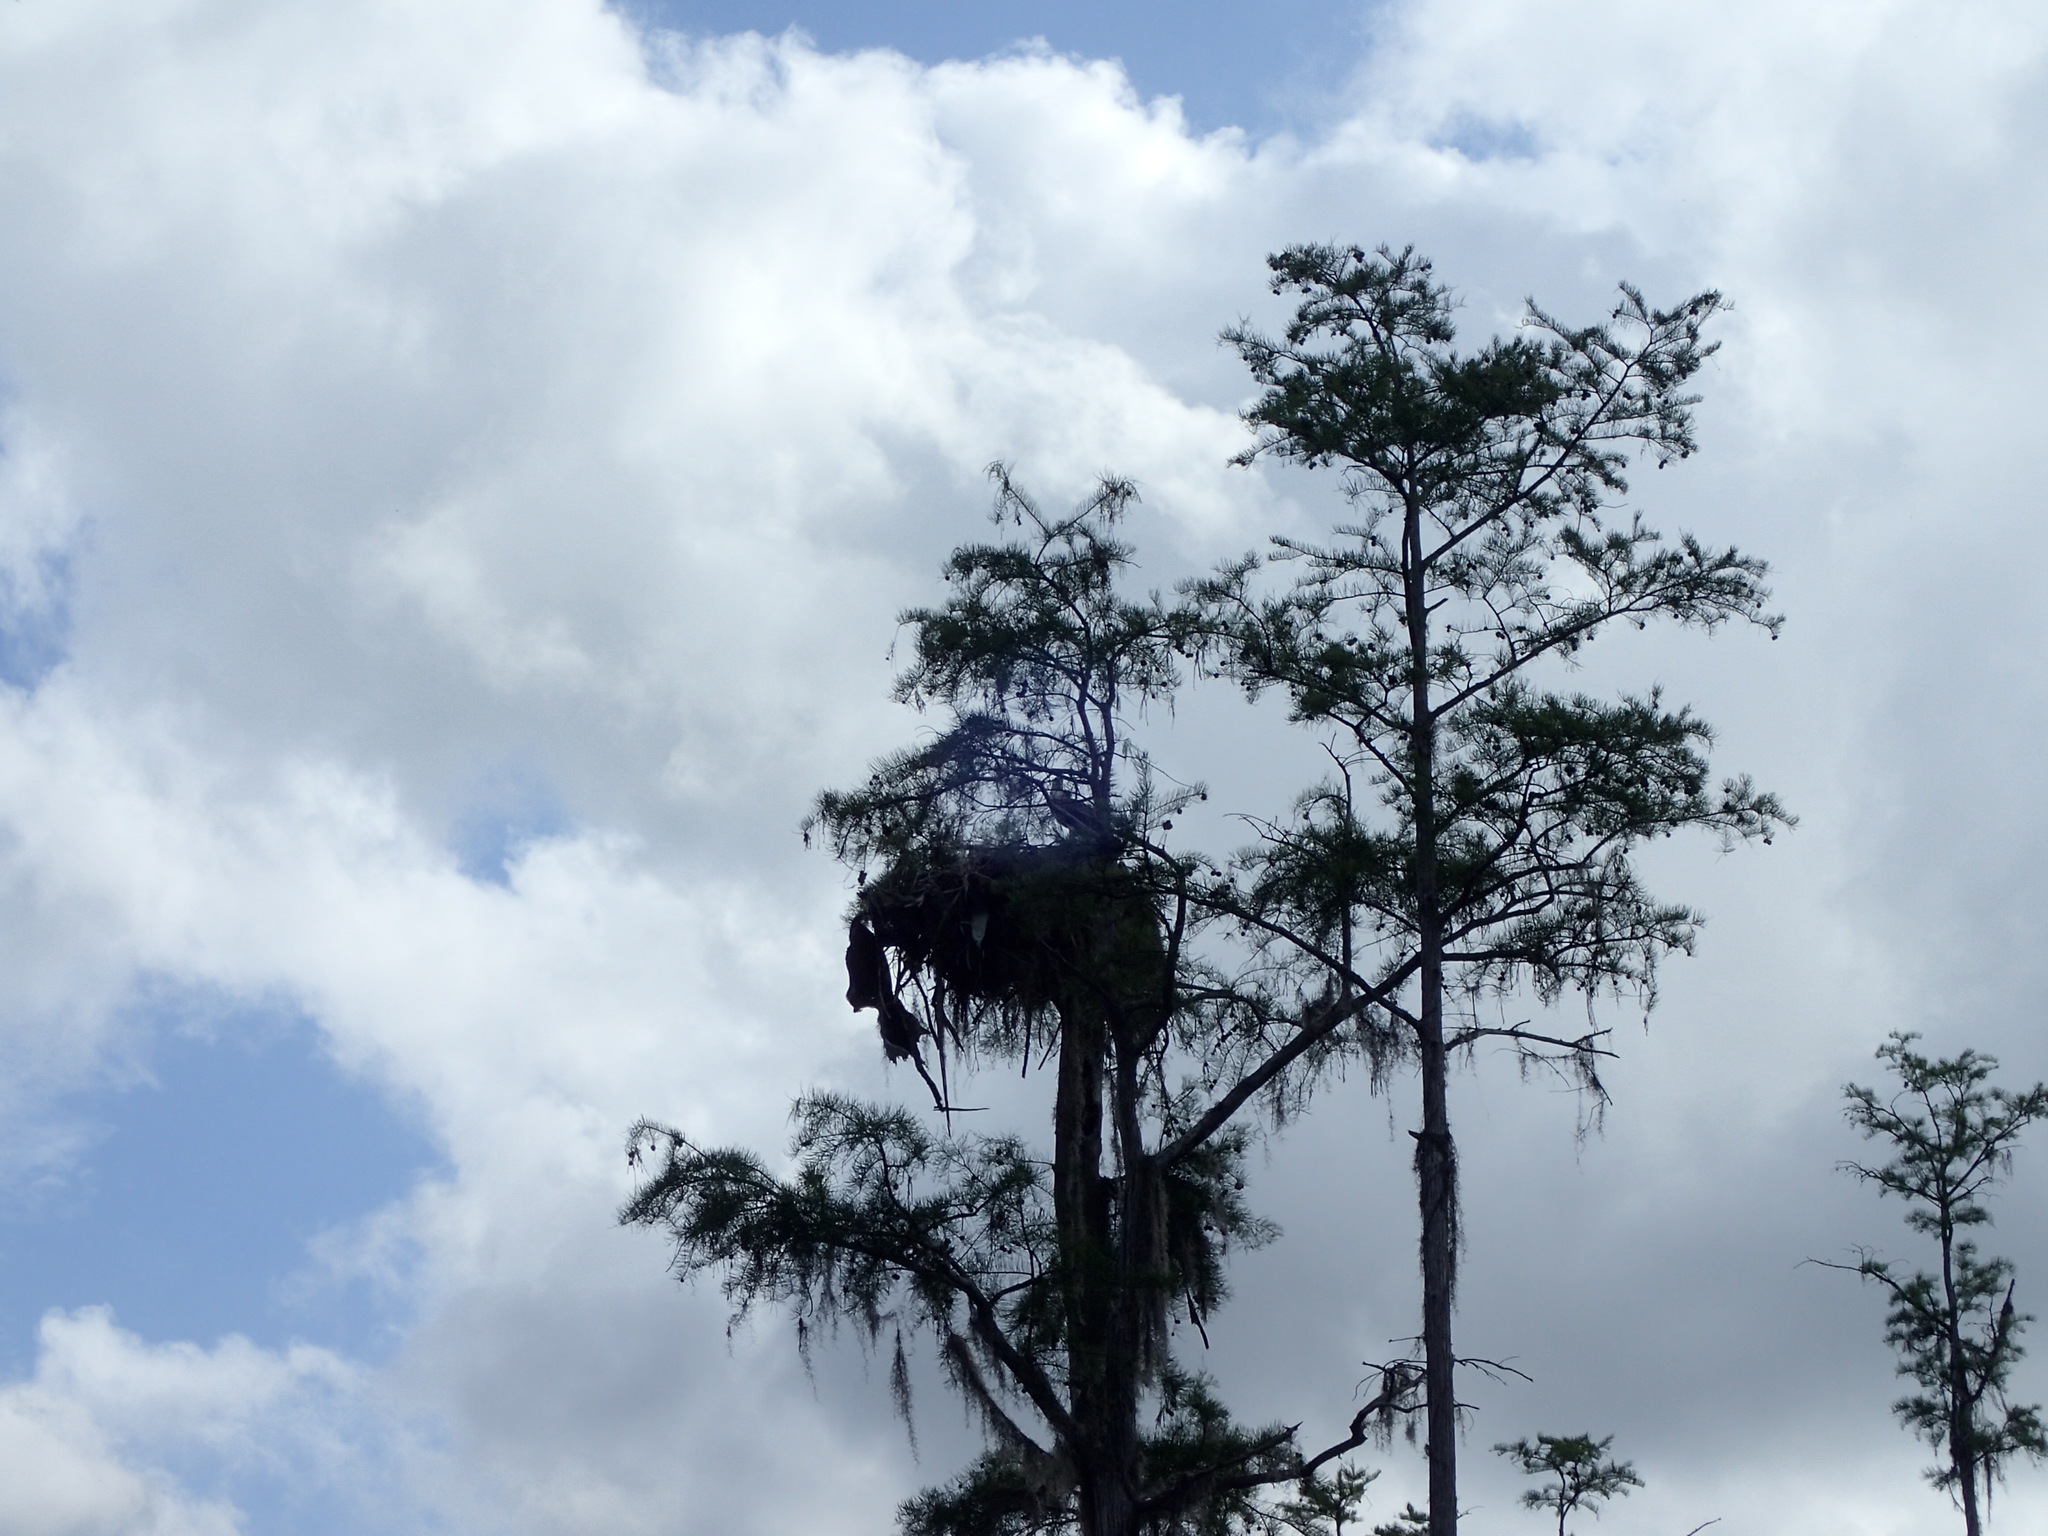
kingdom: Animalia
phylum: Chordata
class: Aves
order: Accipitriformes
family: Pandionidae
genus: Pandion
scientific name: Pandion haliaetus
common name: Osprey
